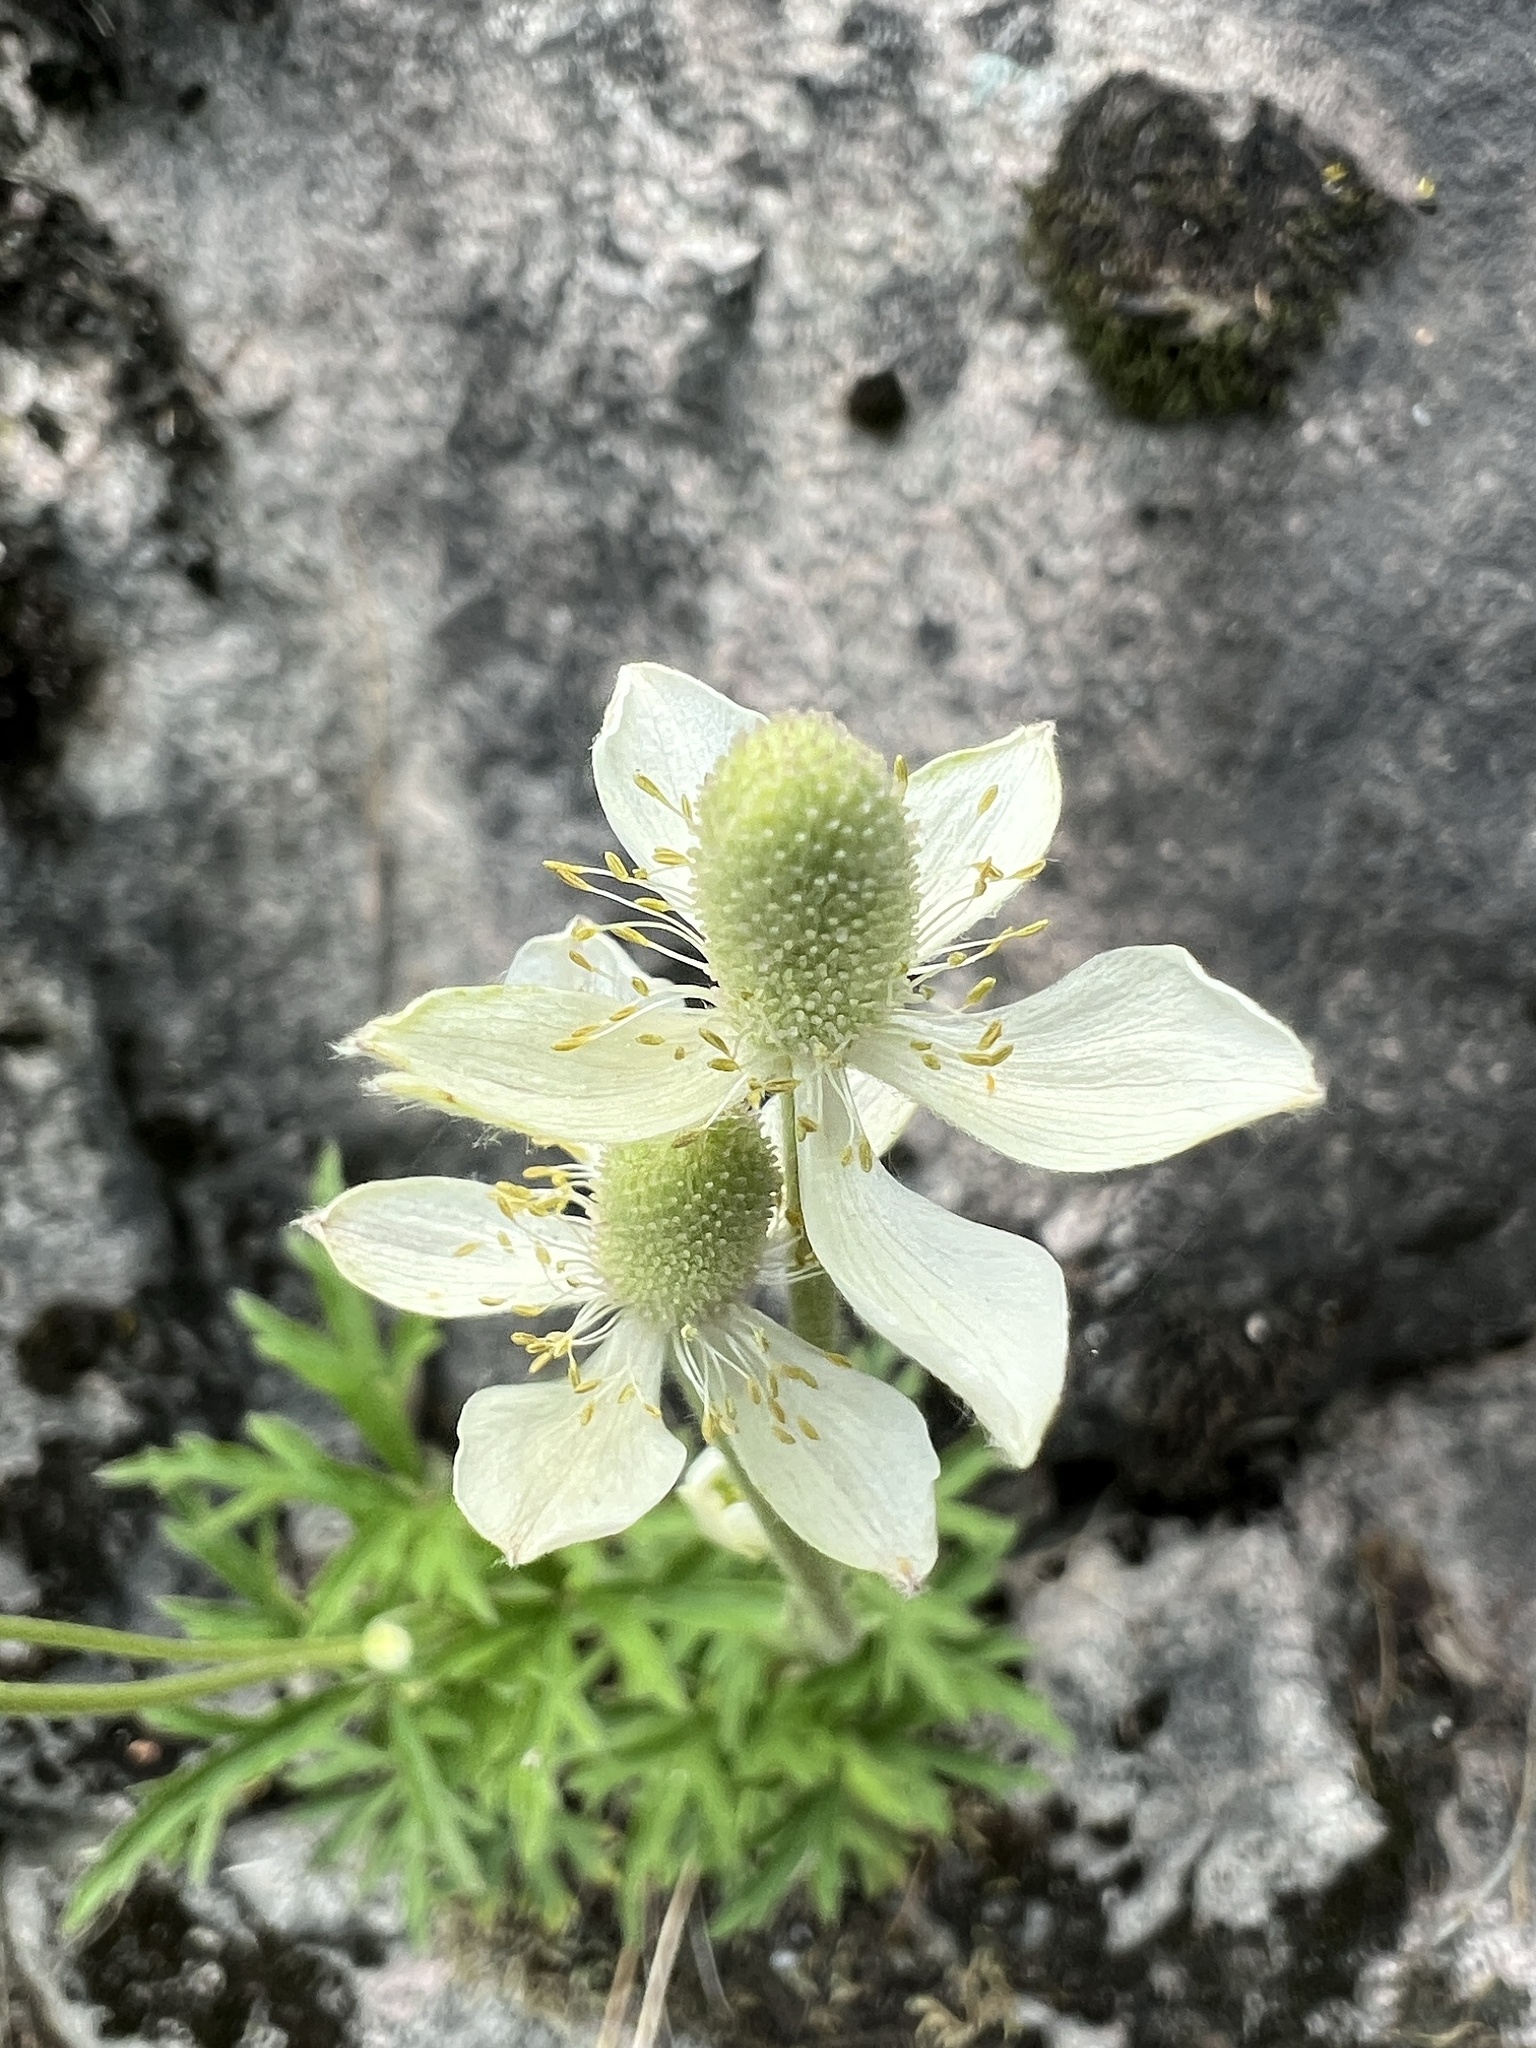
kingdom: Plantae
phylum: Tracheophyta
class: Magnoliopsida
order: Ranunculales
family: Ranunculaceae
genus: Anemone
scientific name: Anemone cylindrica
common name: Candle anemone
